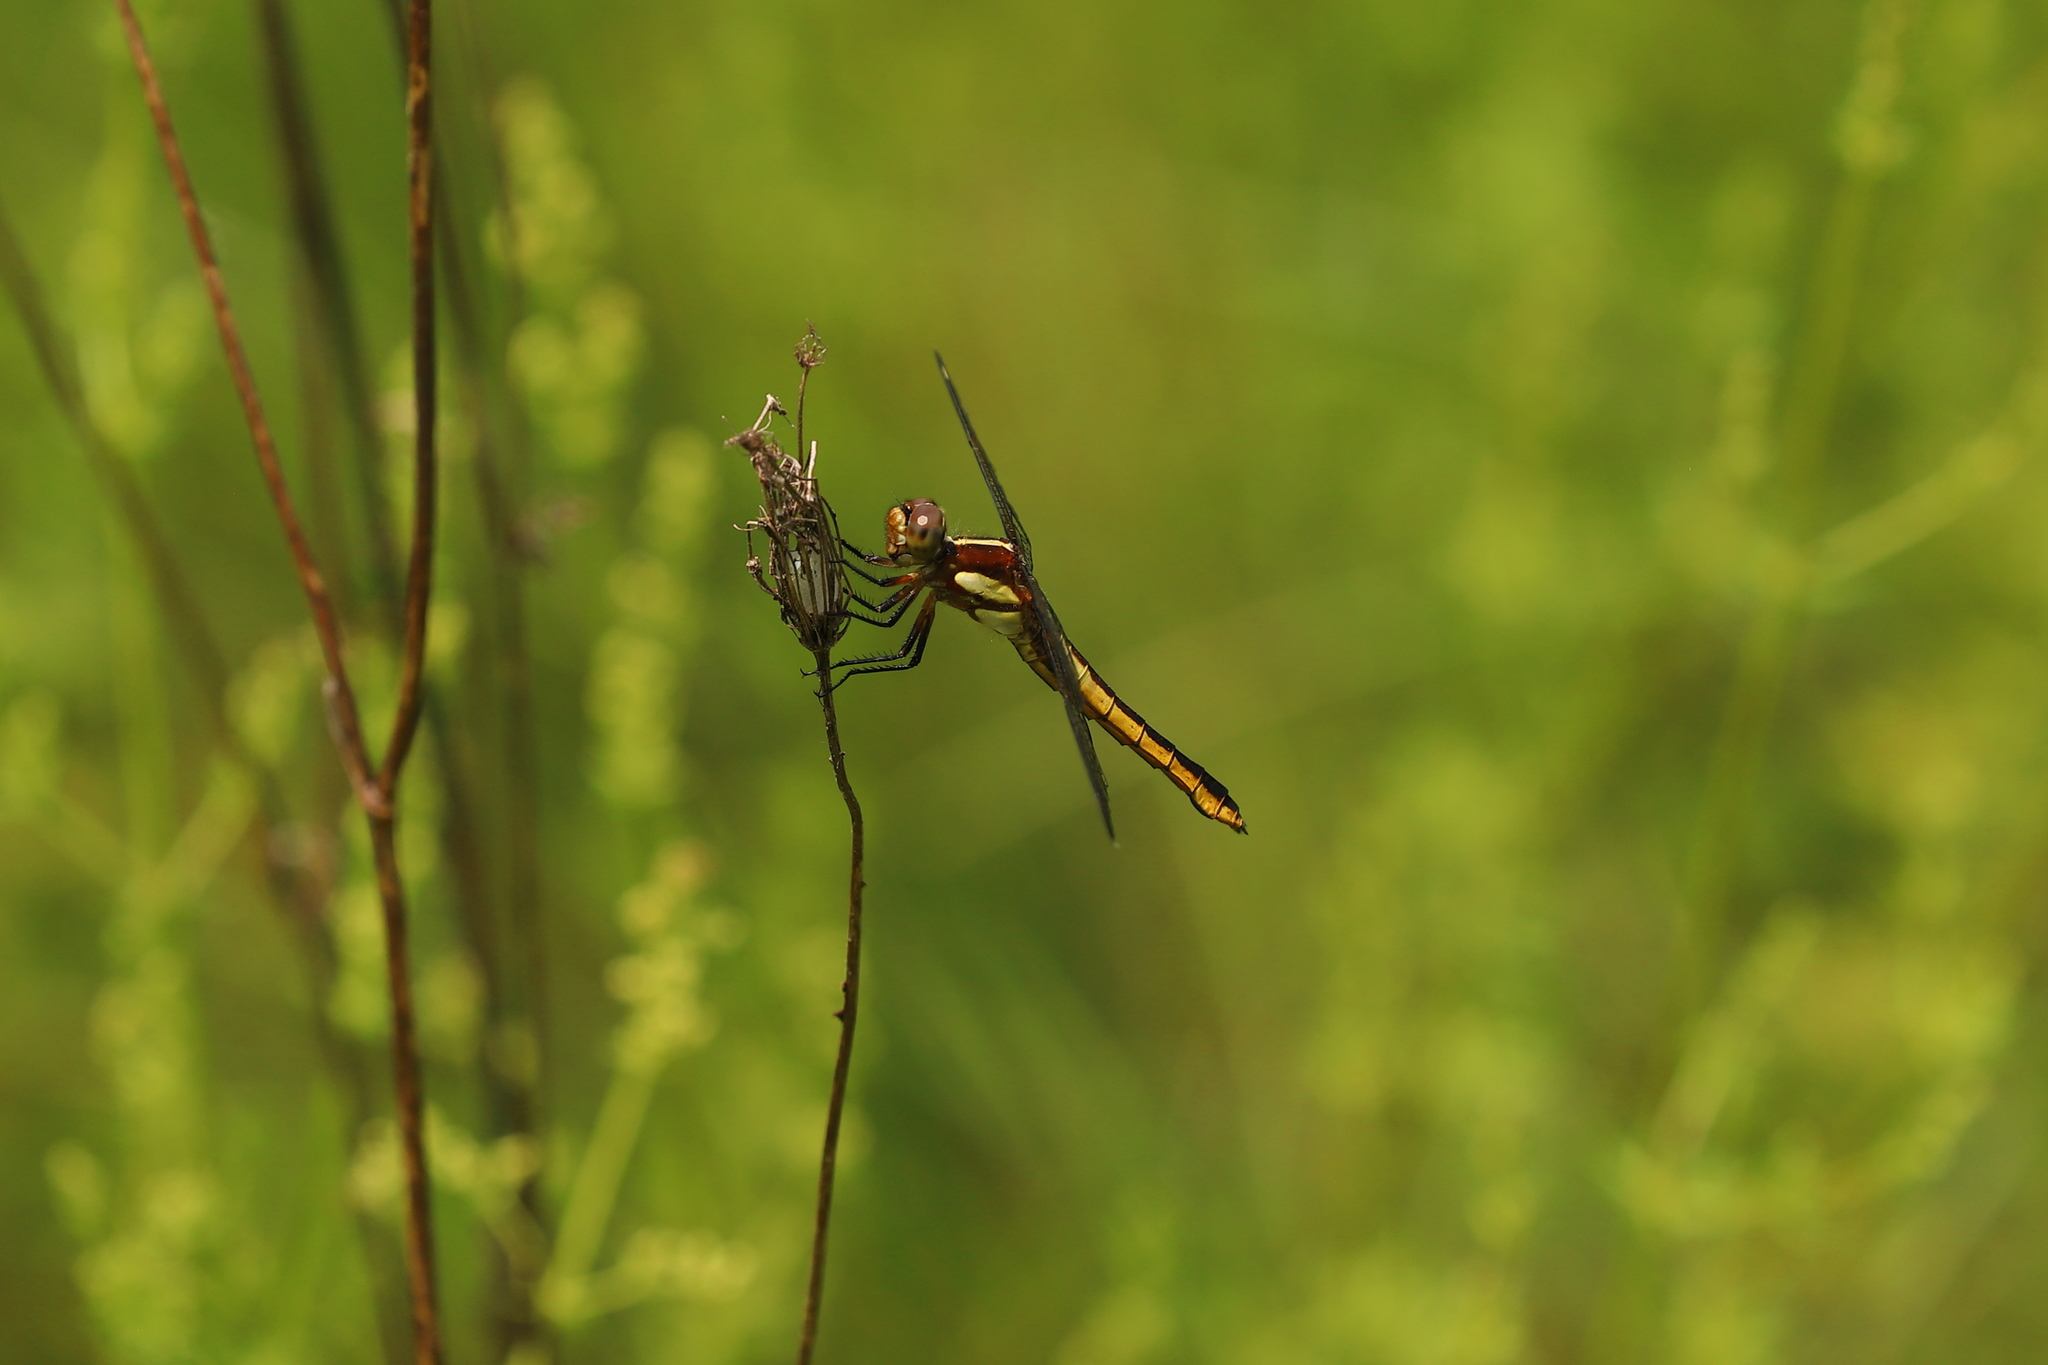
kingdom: Animalia
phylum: Arthropoda
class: Insecta
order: Odonata
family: Libellulidae
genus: Libellula
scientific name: Libellula cyanea
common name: Spangled skimmer
